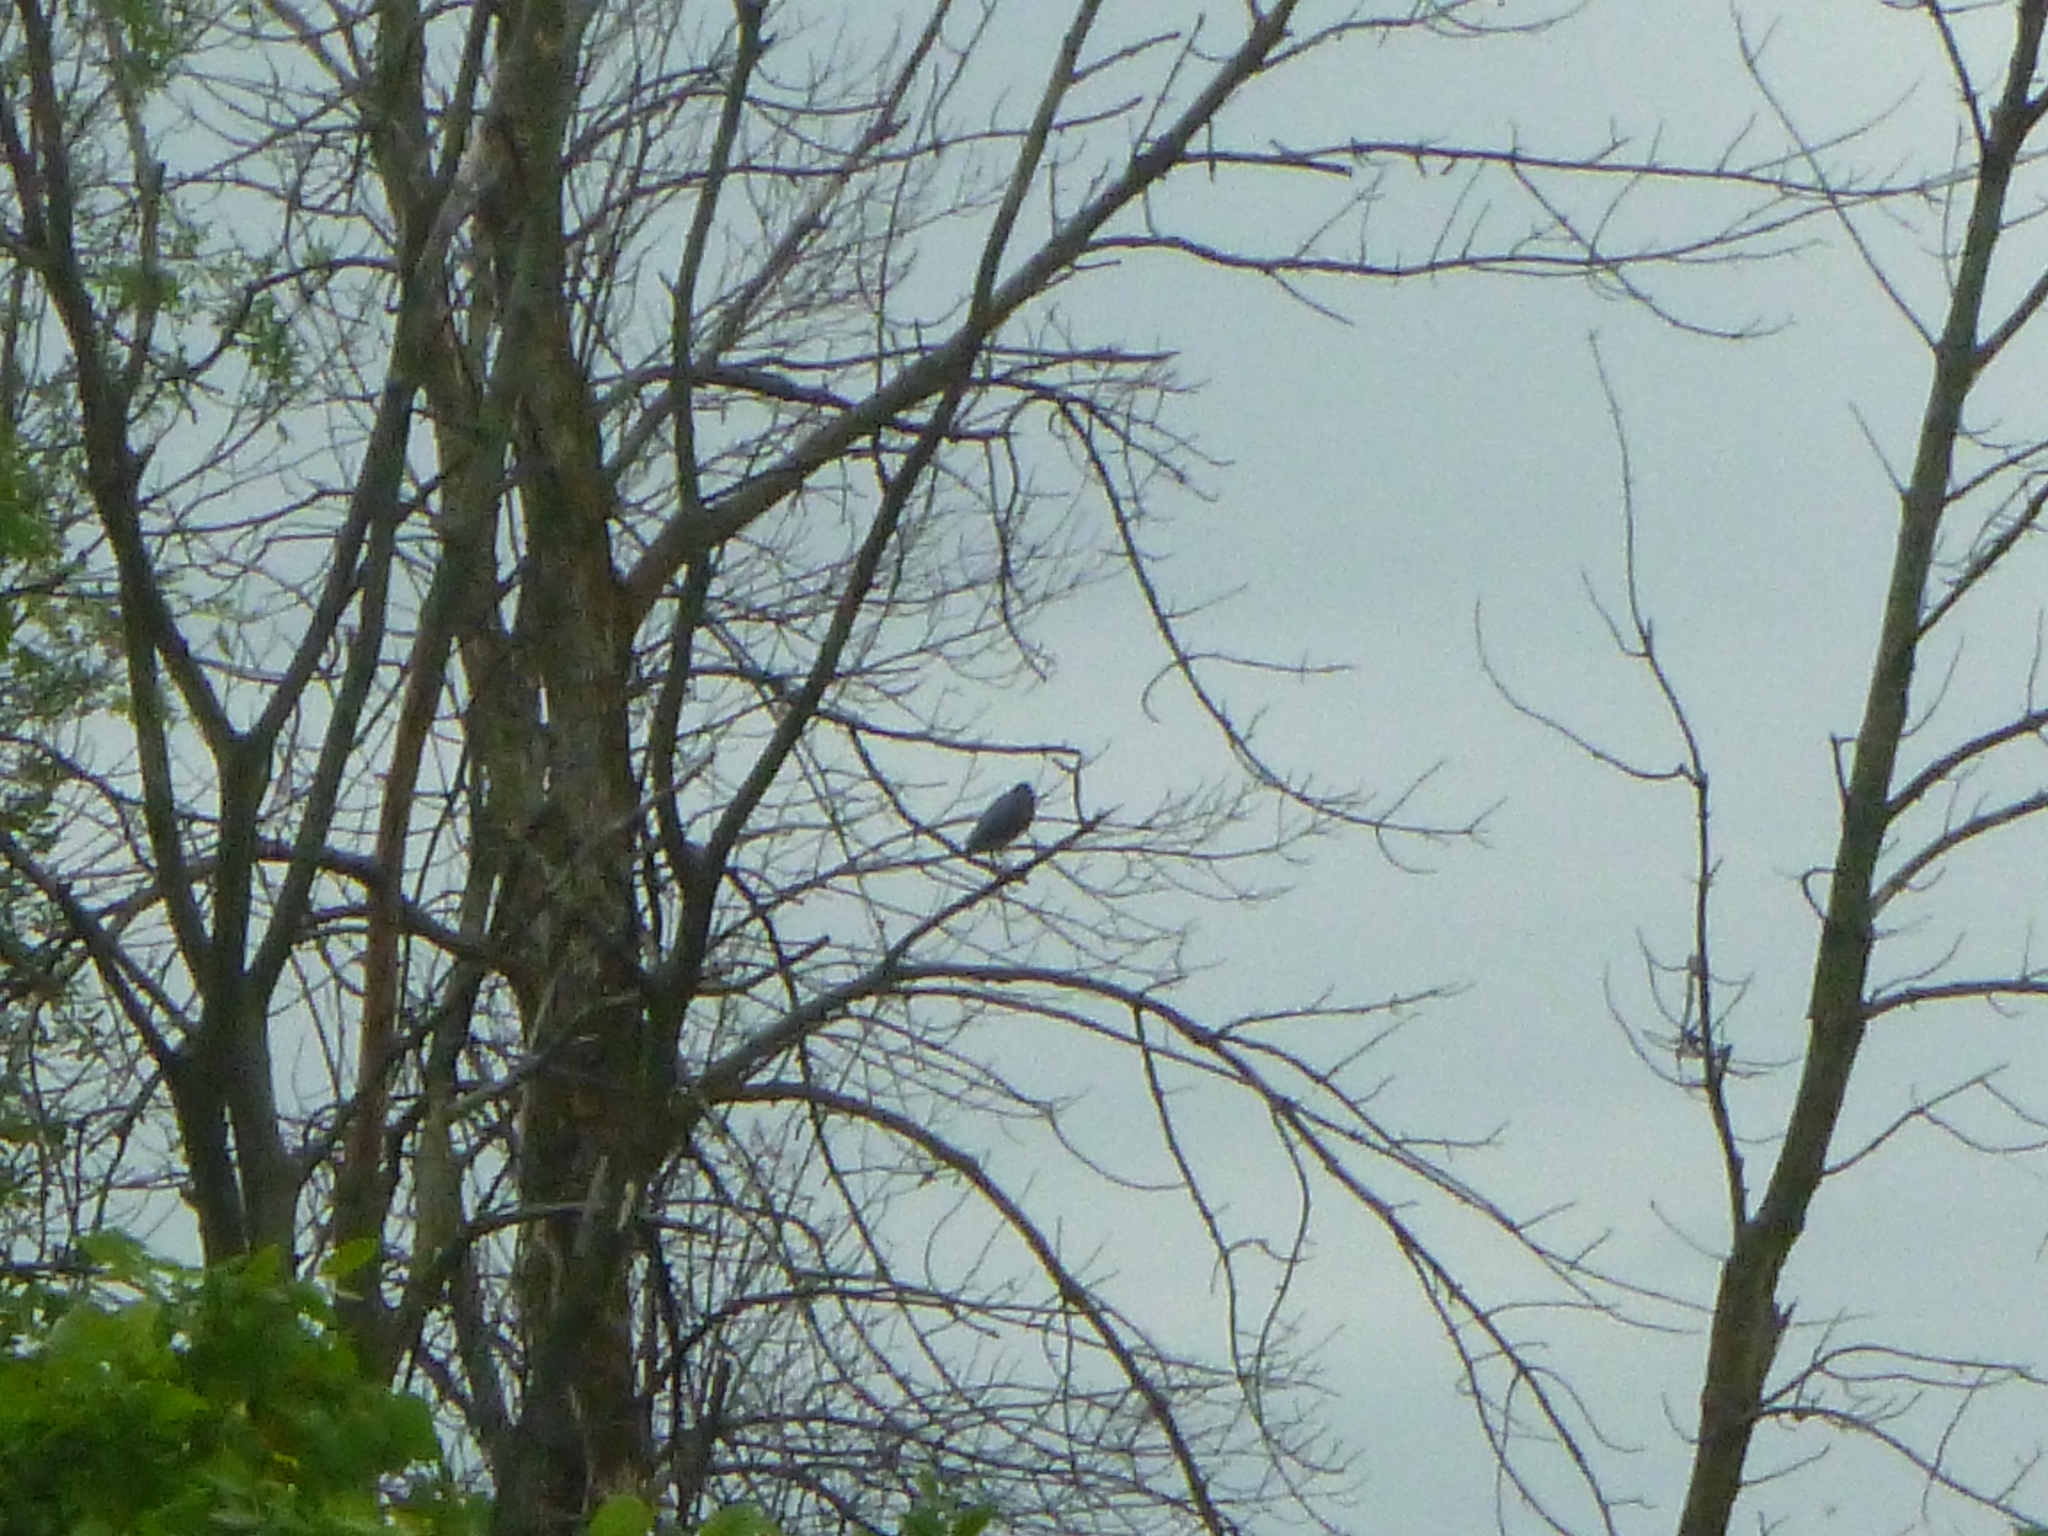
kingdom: Animalia
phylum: Chordata
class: Aves
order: Pelecaniformes
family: Ardeidae
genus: Butorides
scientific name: Butorides virescens
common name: Green heron
